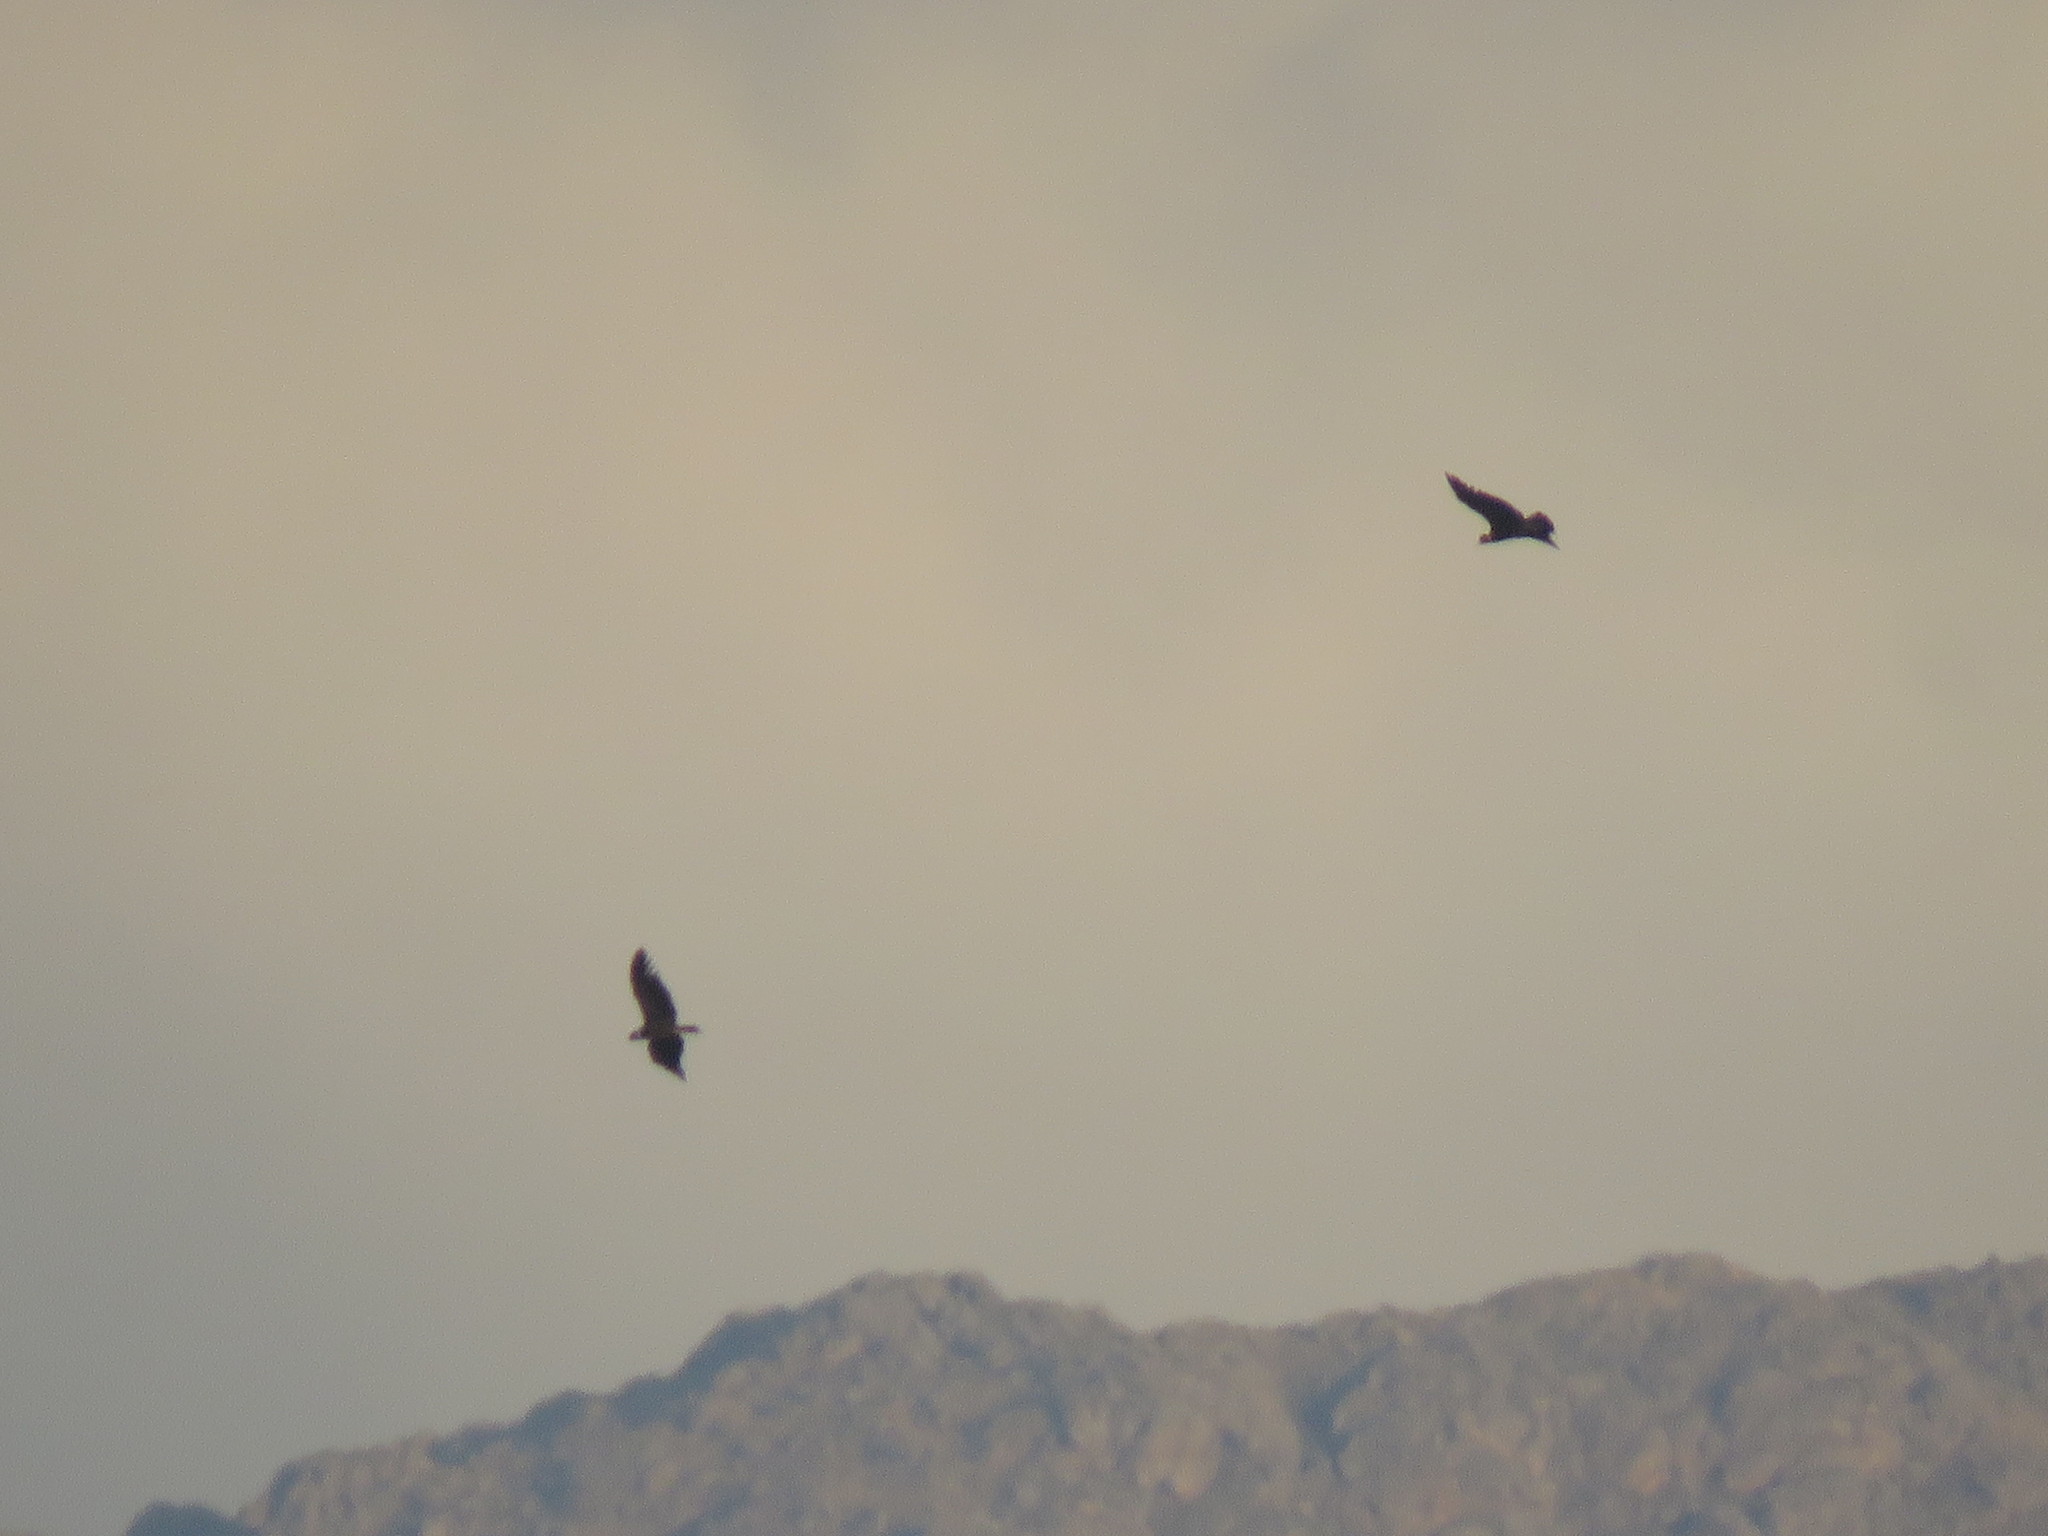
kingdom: Animalia
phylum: Chordata
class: Aves
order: Accipitriformes
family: Cathartidae
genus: Vultur
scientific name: Vultur gryphus
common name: Andean condor
